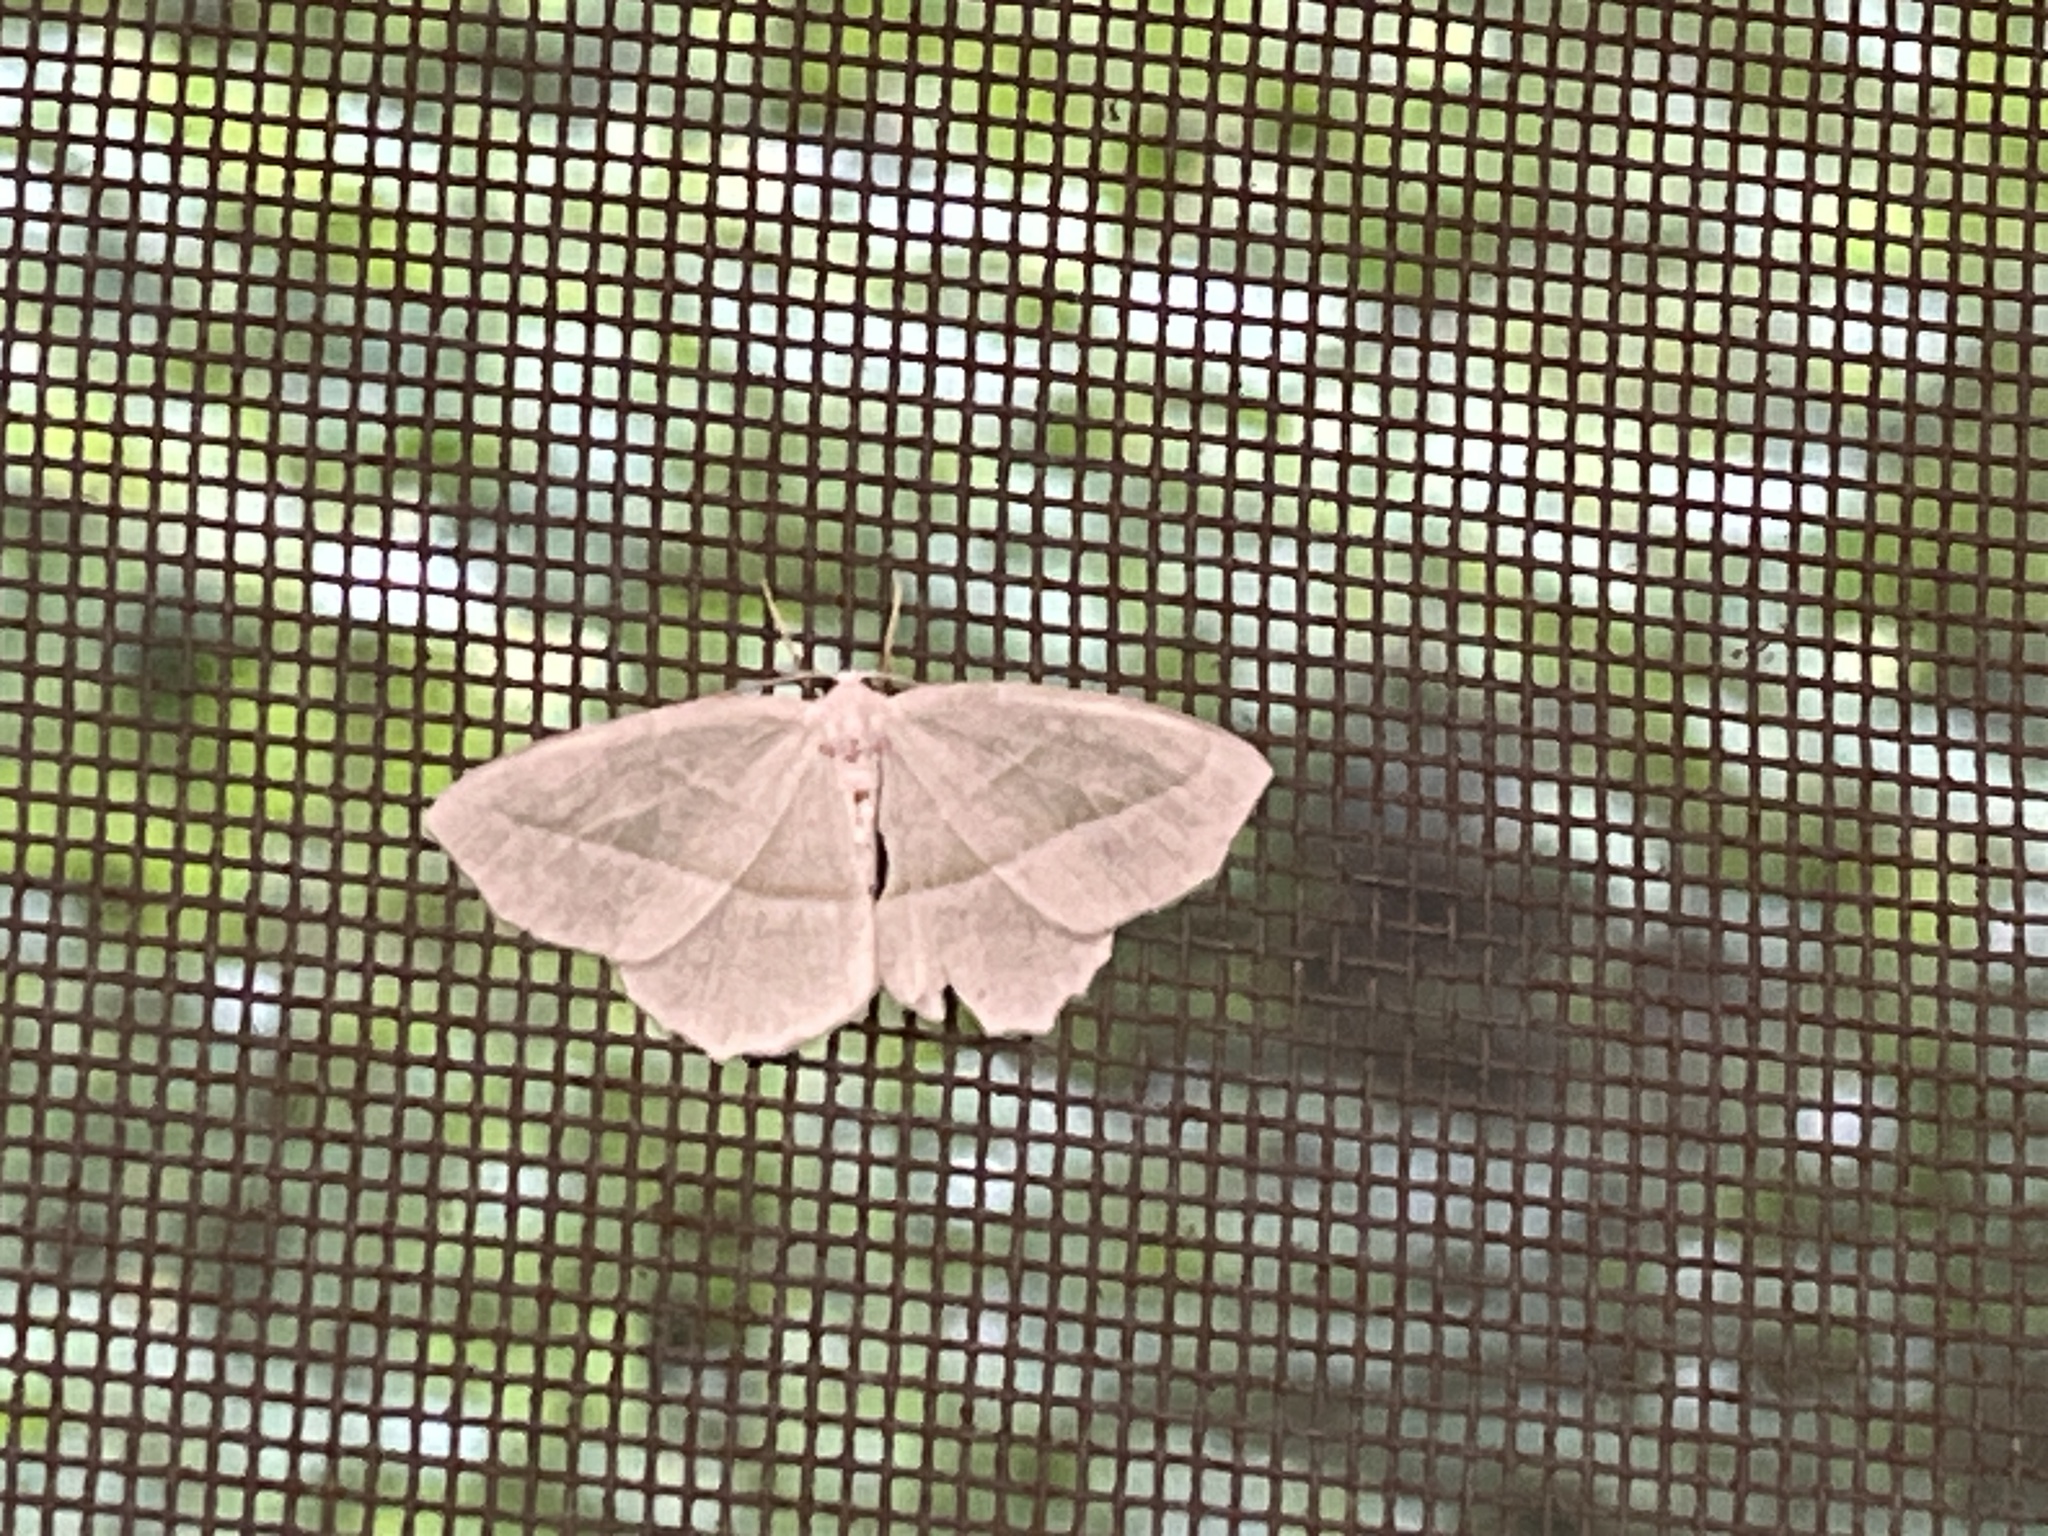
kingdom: Animalia
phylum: Arthropoda
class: Insecta
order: Lepidoptera
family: Geometridae
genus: Campaea
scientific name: Campaea perlata
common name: Fringed looper
